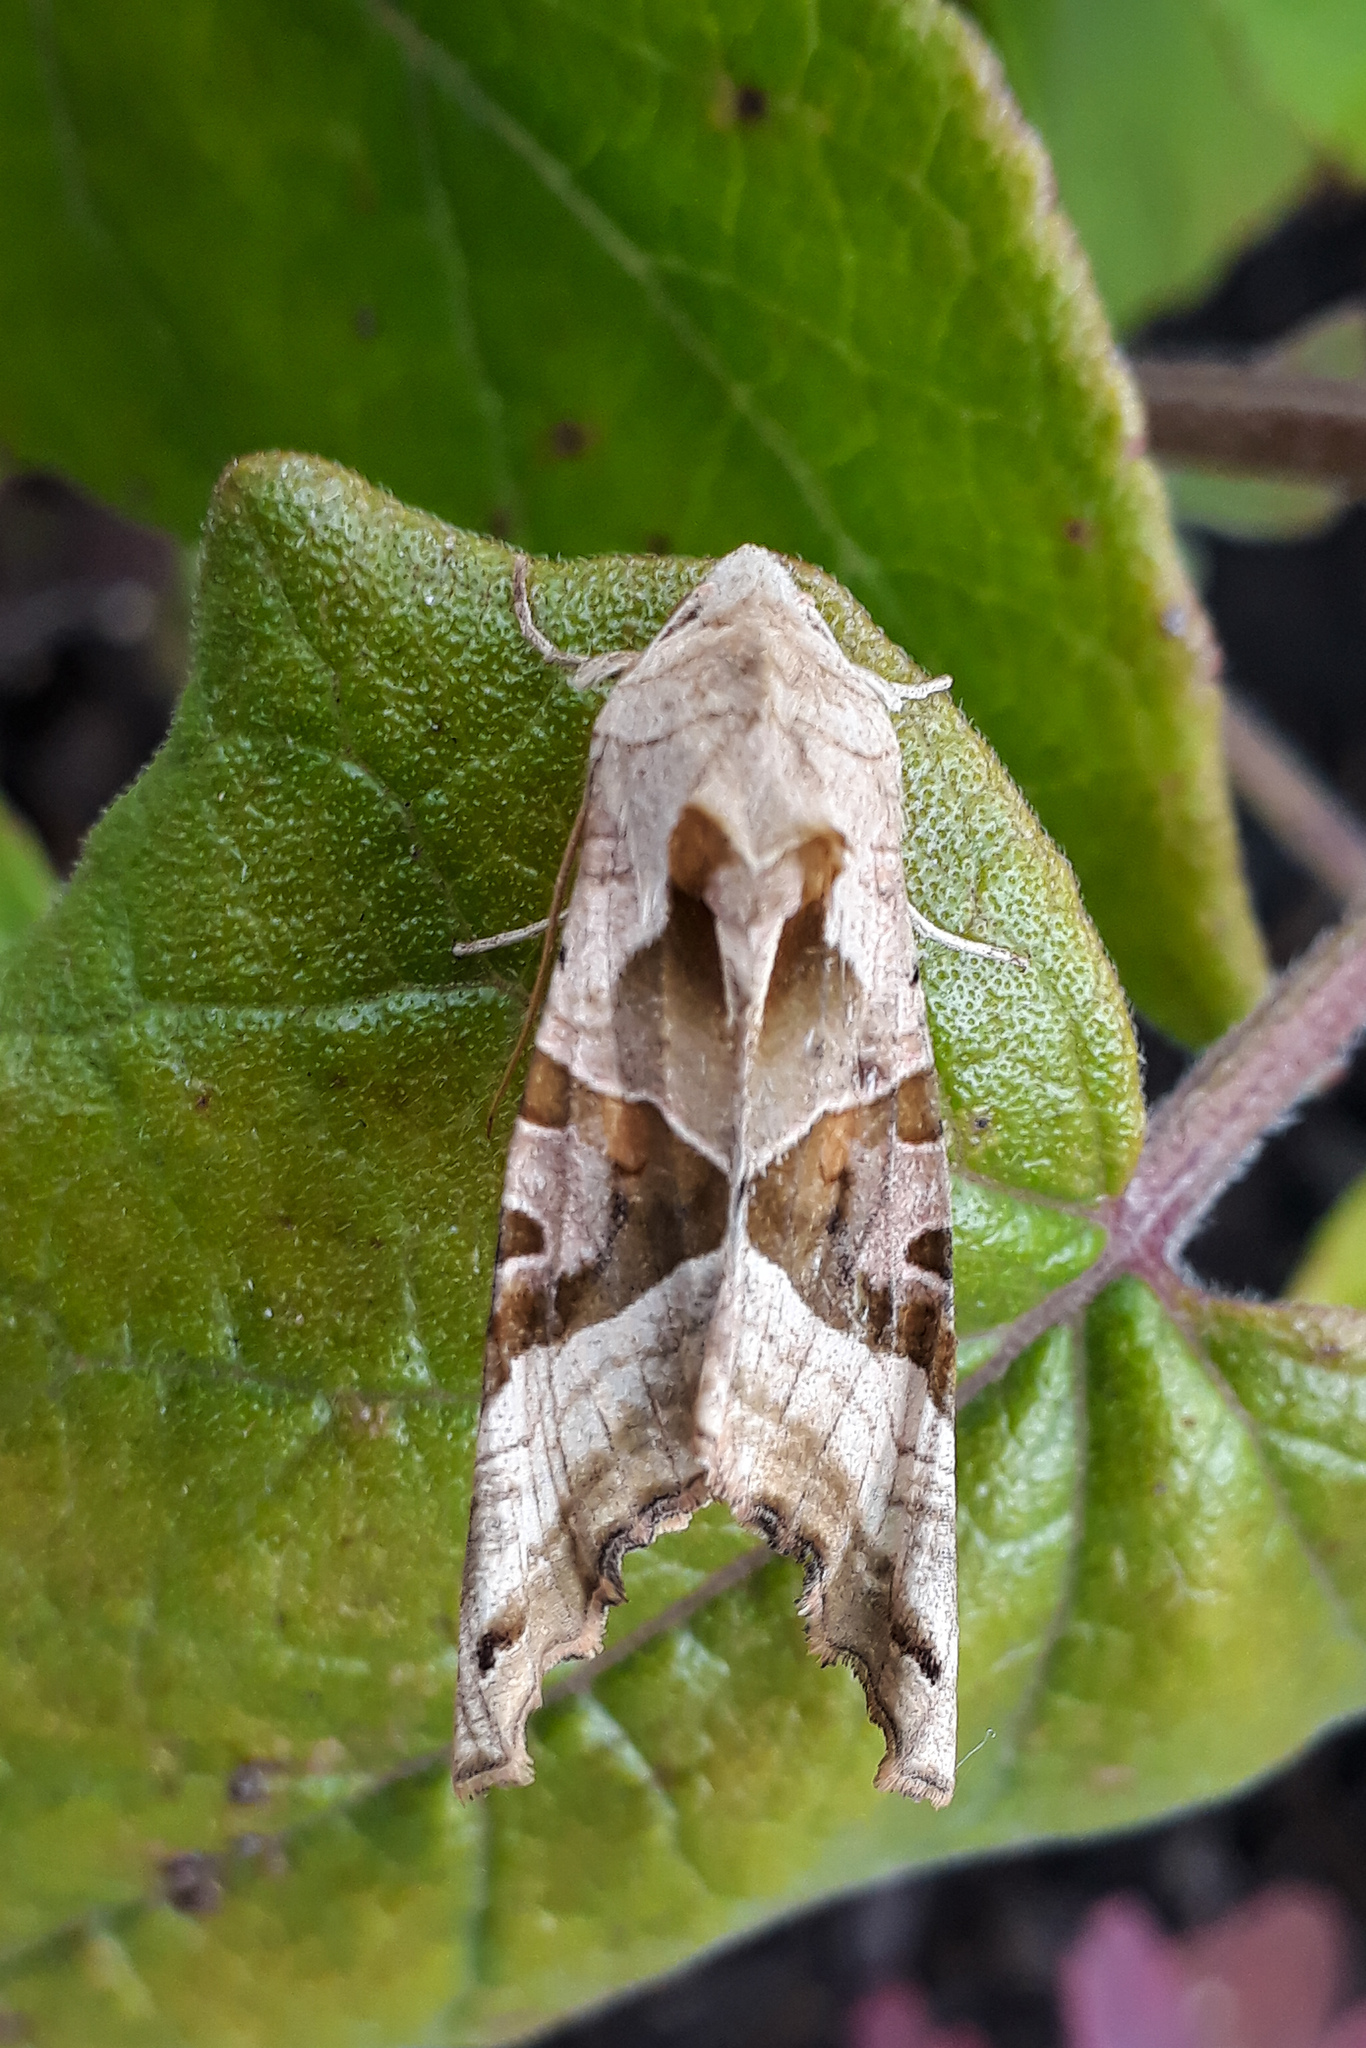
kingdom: Animalia
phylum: Arthropoda
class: Insecta
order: Lepidoptera
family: Noctuidae
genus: Phlogophora
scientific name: Phlogophora meticulosa
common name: Angle shades
